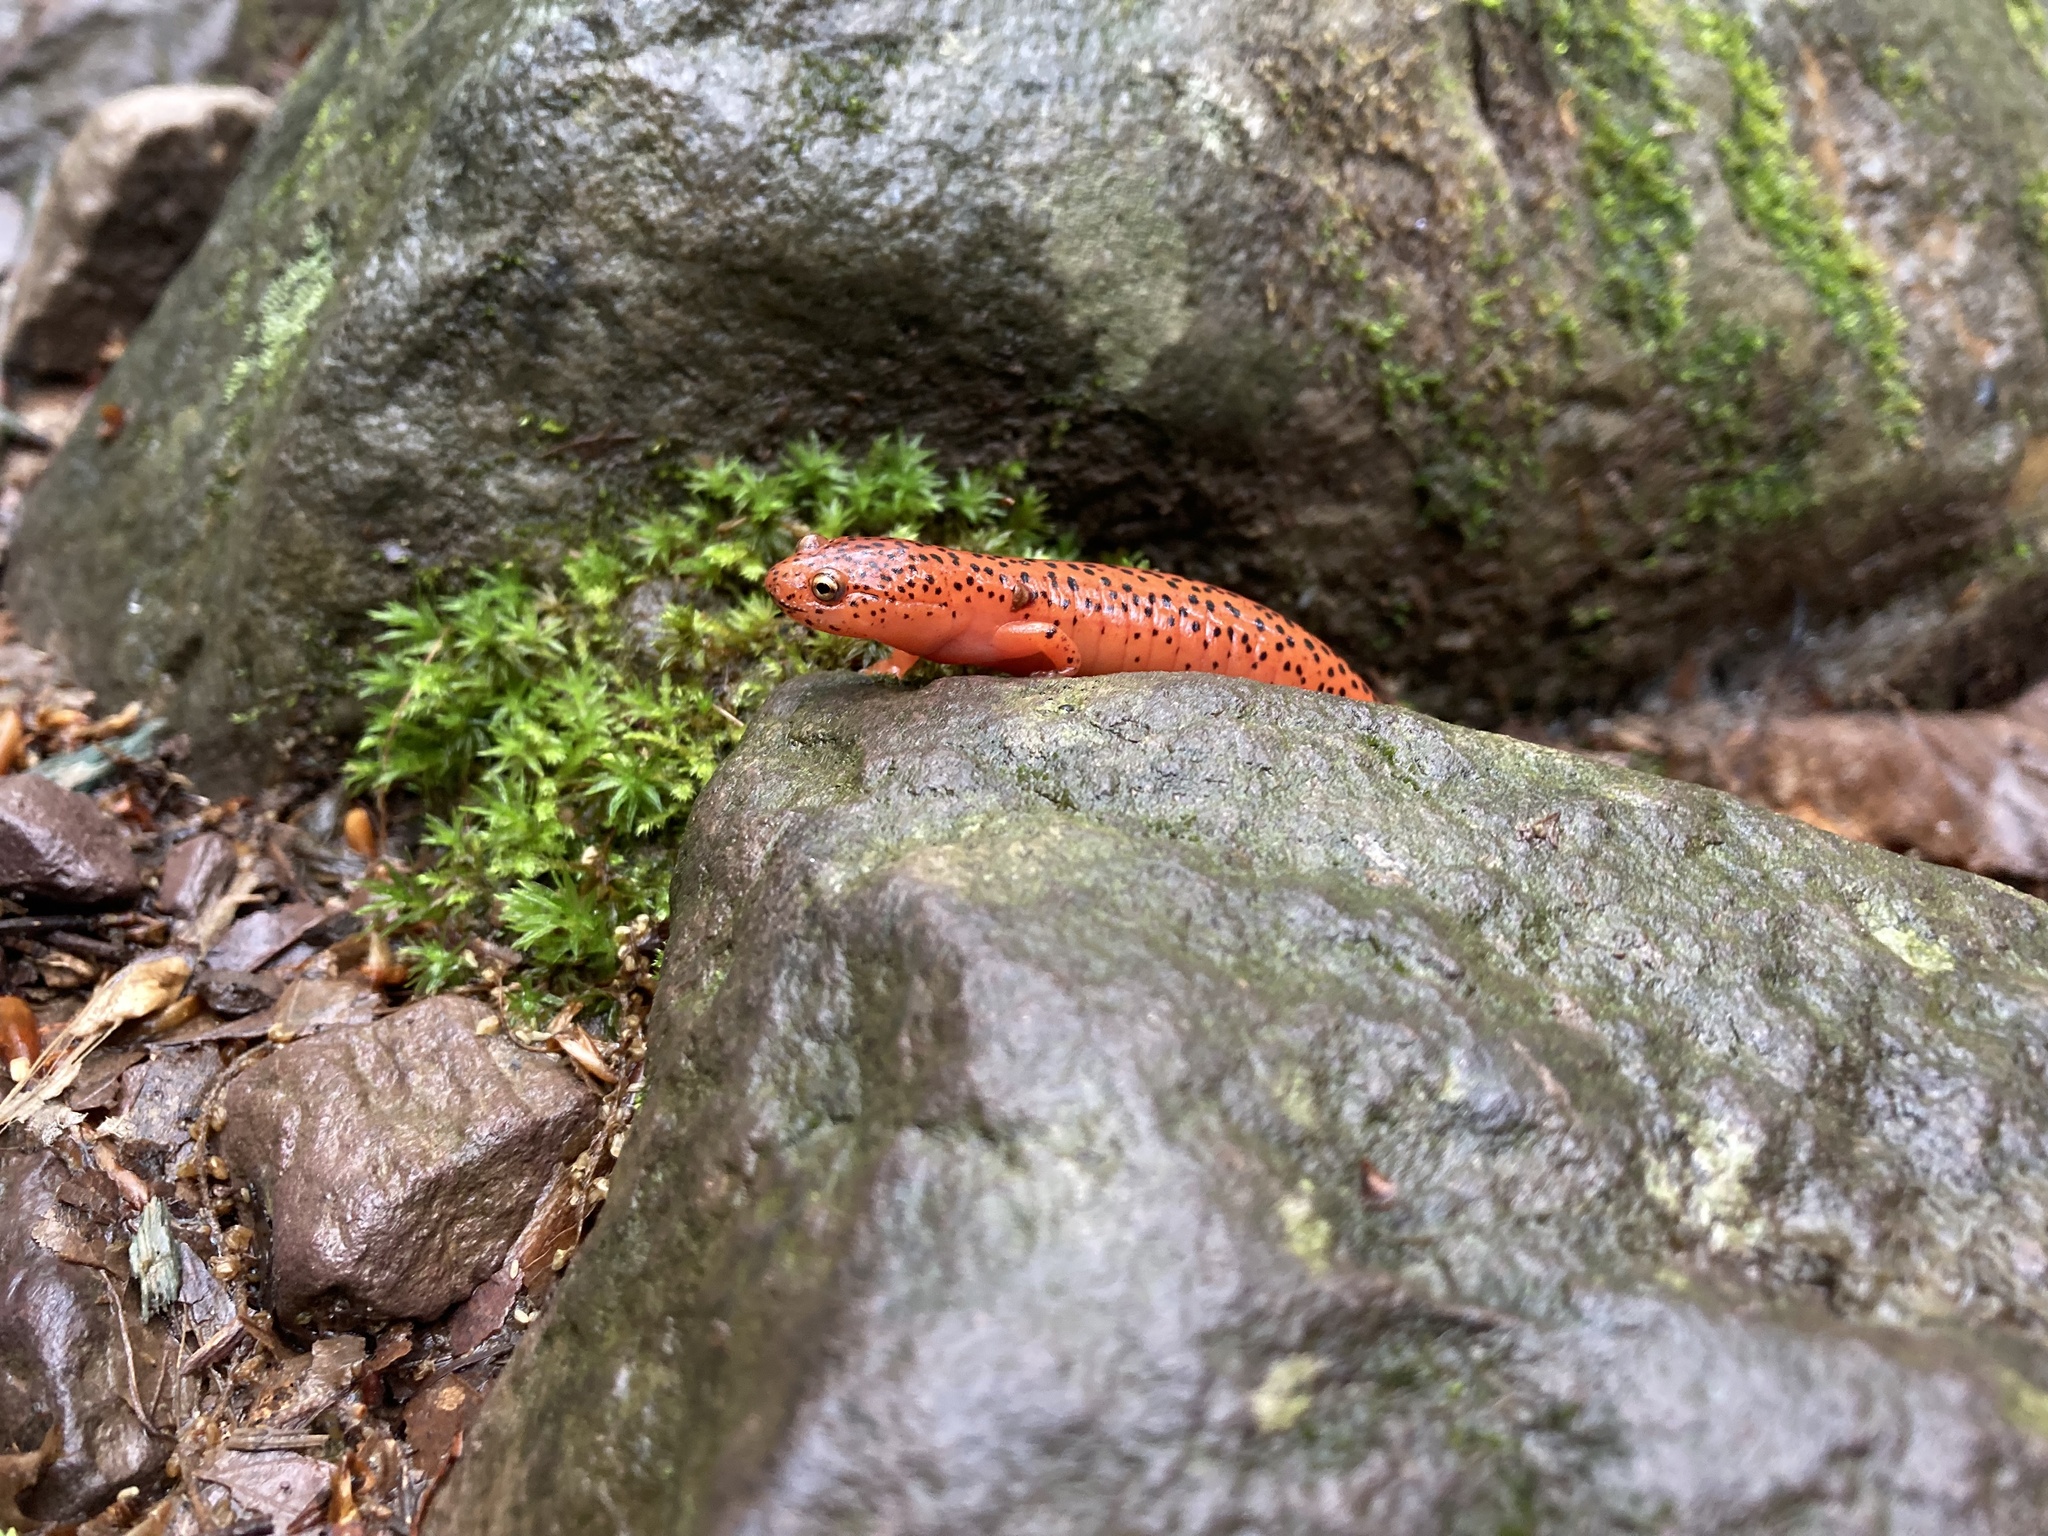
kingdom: Animalia
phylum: Chordata
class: Amphibia
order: Caudata
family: Plethodontidae
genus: Pseudotriton
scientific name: Pseudotriton ruber
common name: Red salamander
